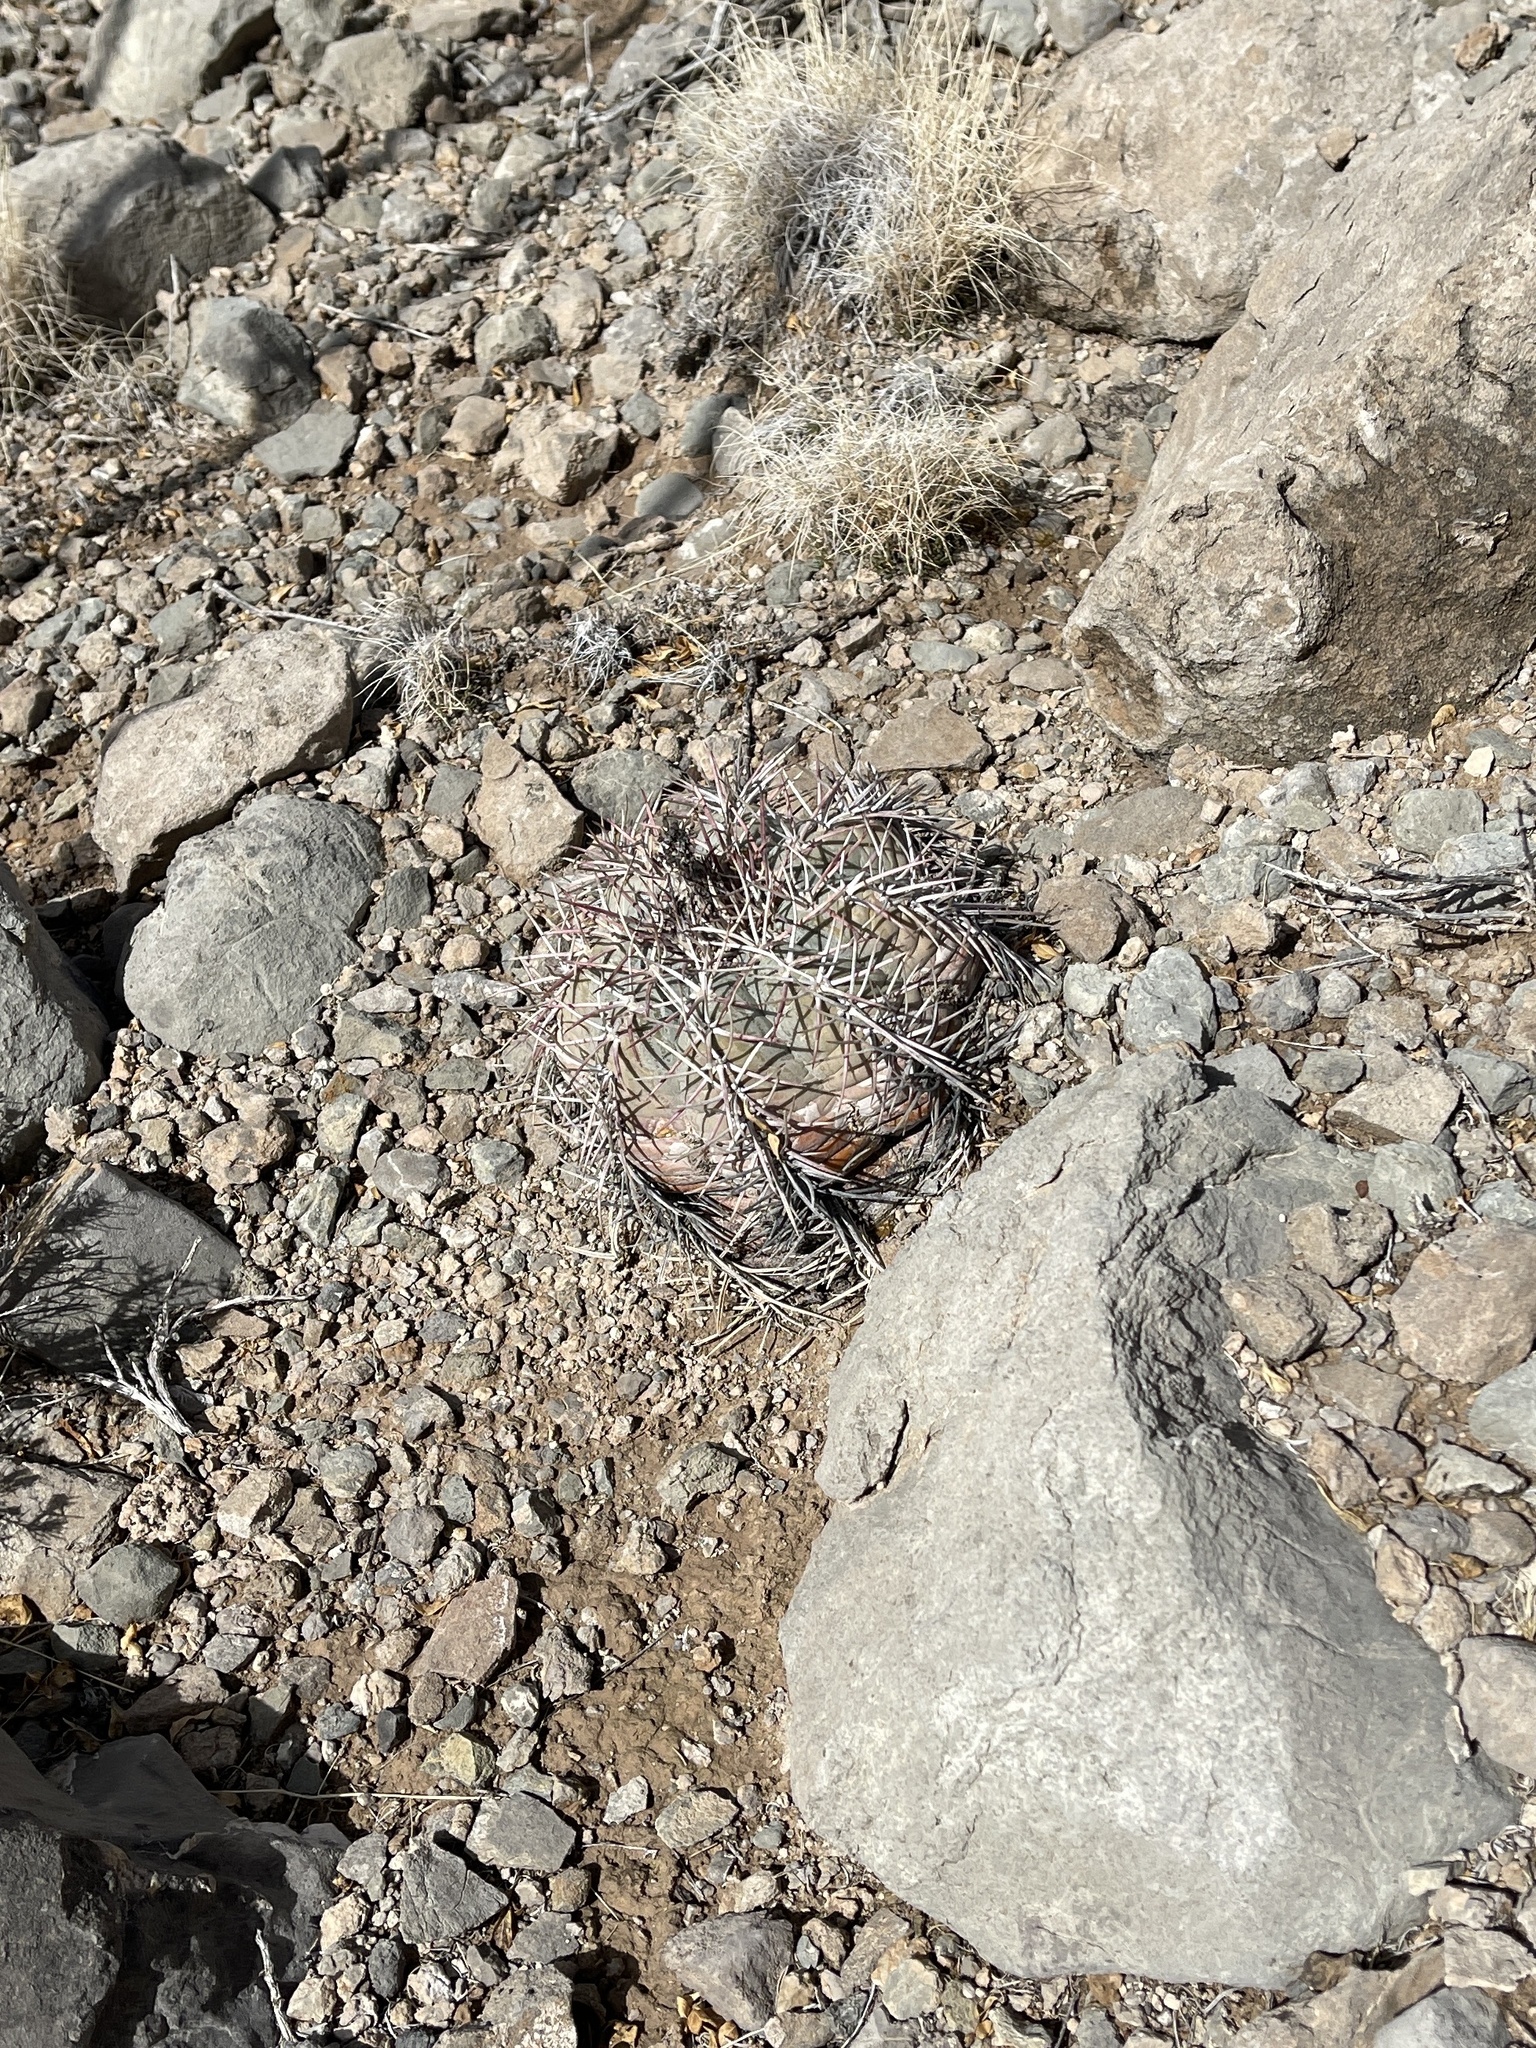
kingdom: Plantae
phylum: Tracheophyta
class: Magnoliopsida
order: Caryophyllales
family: Cactaceae
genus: Echinocactus
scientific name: Echinocactus horizonthalonius
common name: Devilshead
